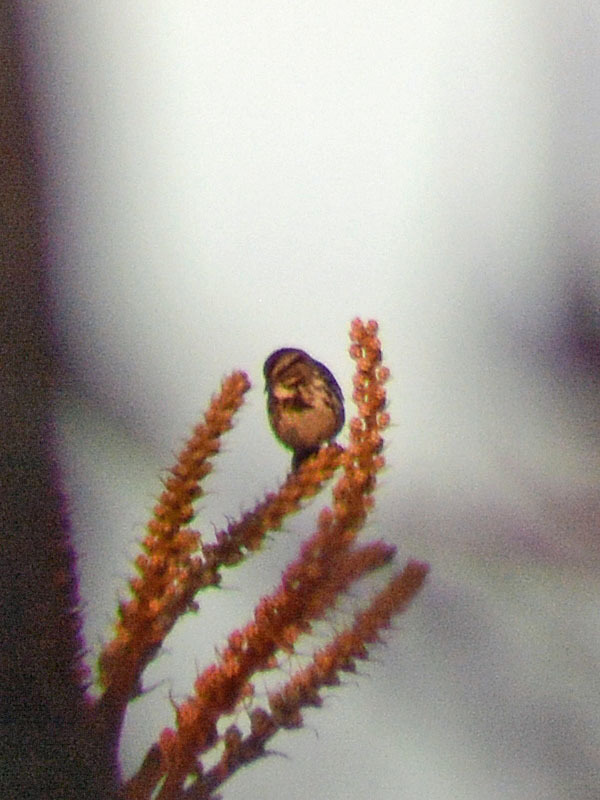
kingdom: Animalia
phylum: Chordata
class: Aves
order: Passeriformes
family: Passerellidae
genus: Melospiza
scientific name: Melospiza melodia
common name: Song sparrow
